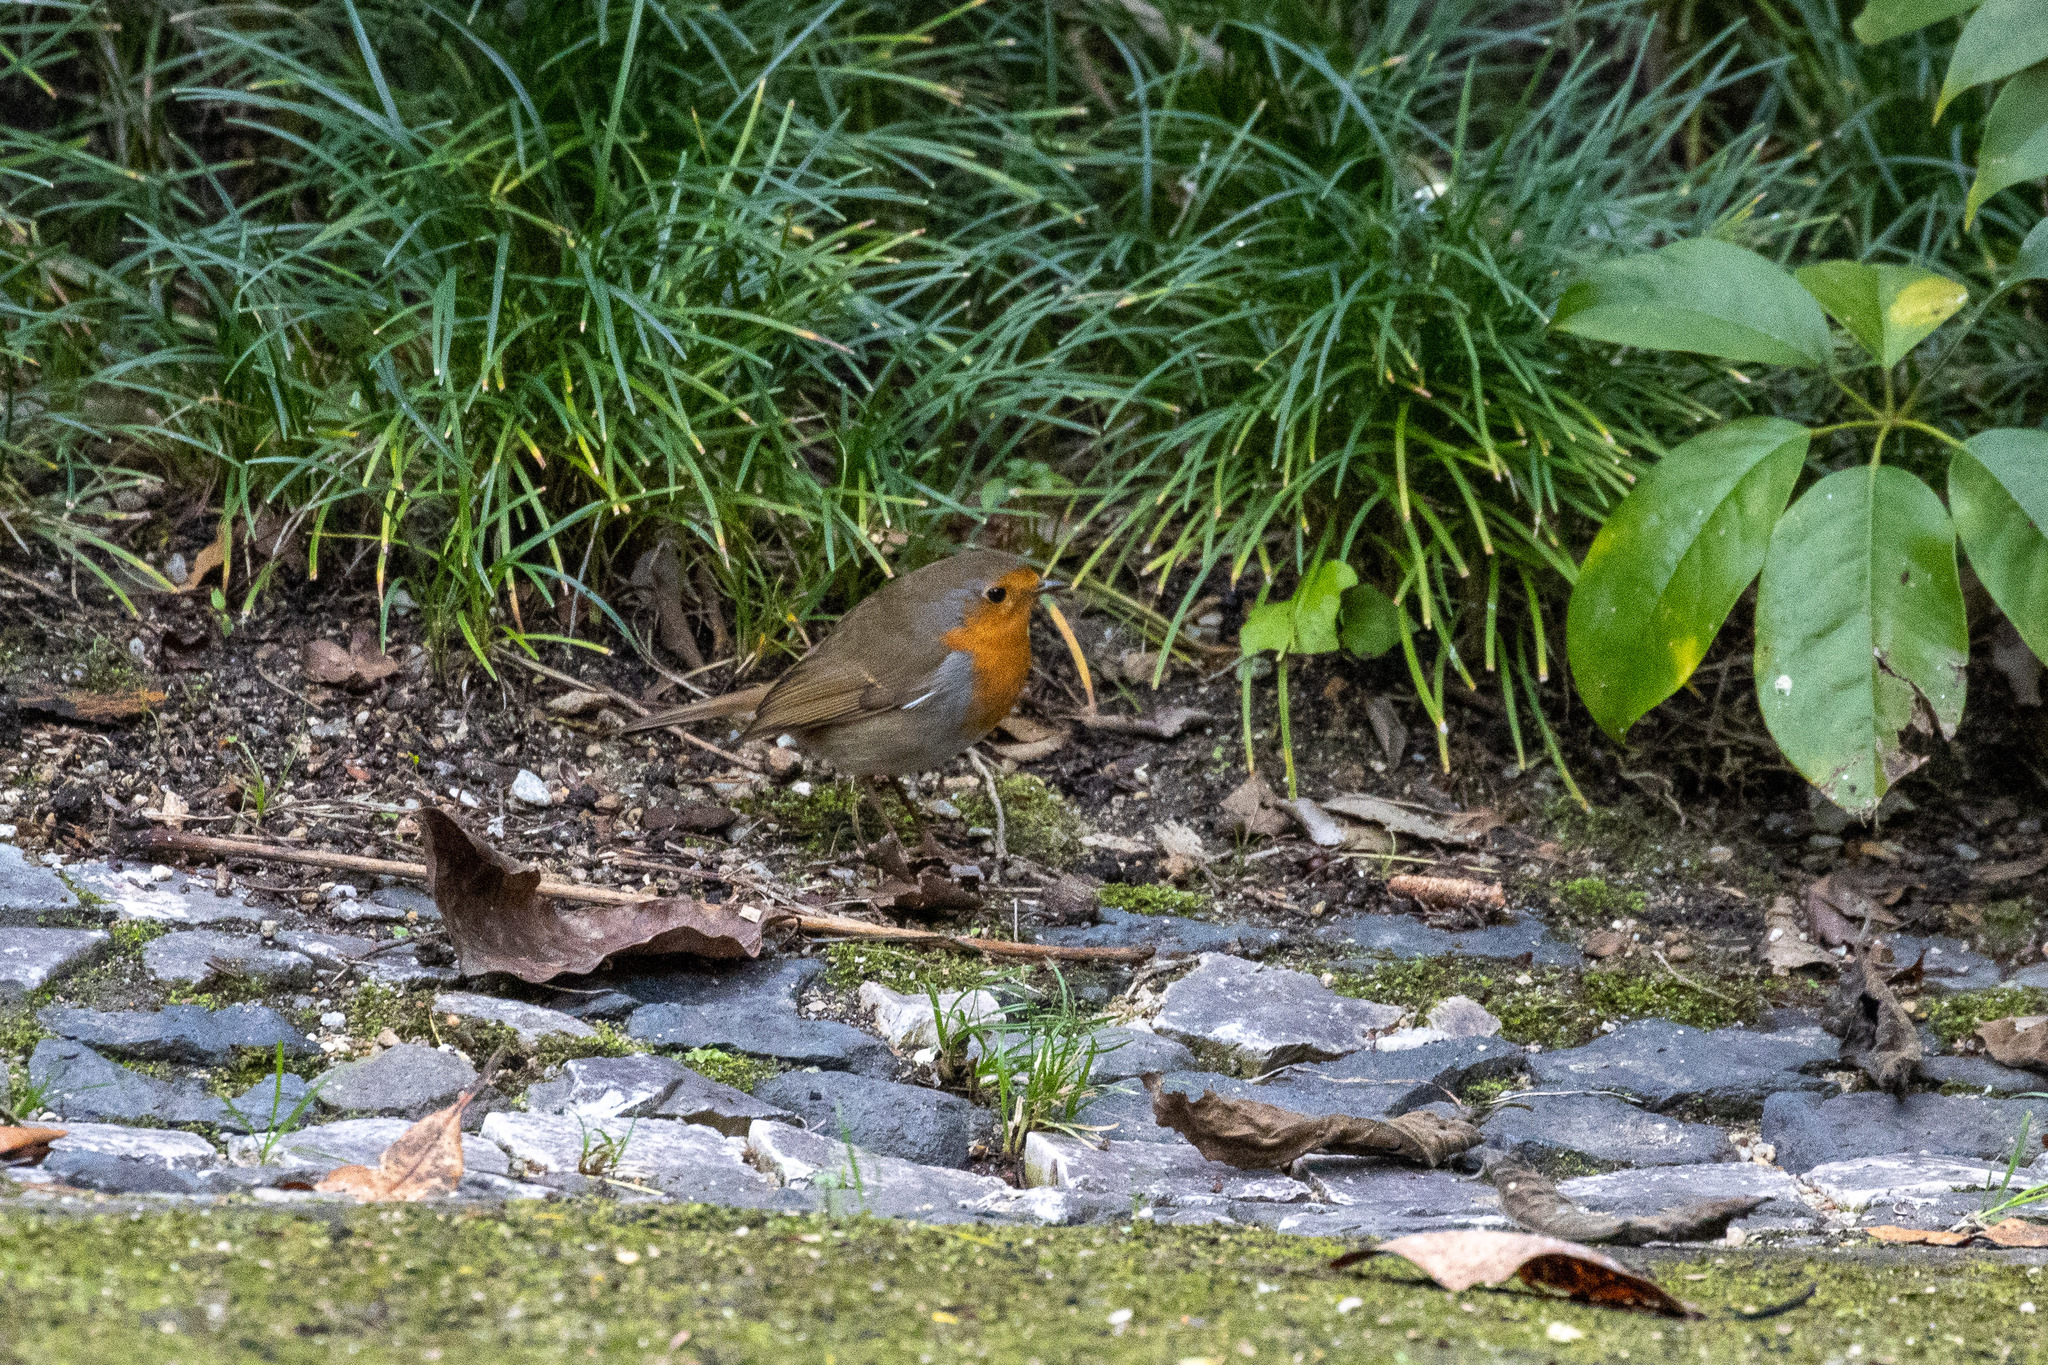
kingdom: Animalia
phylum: Chordata
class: Aves
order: Passeriformes
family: Muscicapidae
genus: Erithacus
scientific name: Erithacus rubecula
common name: European robin
